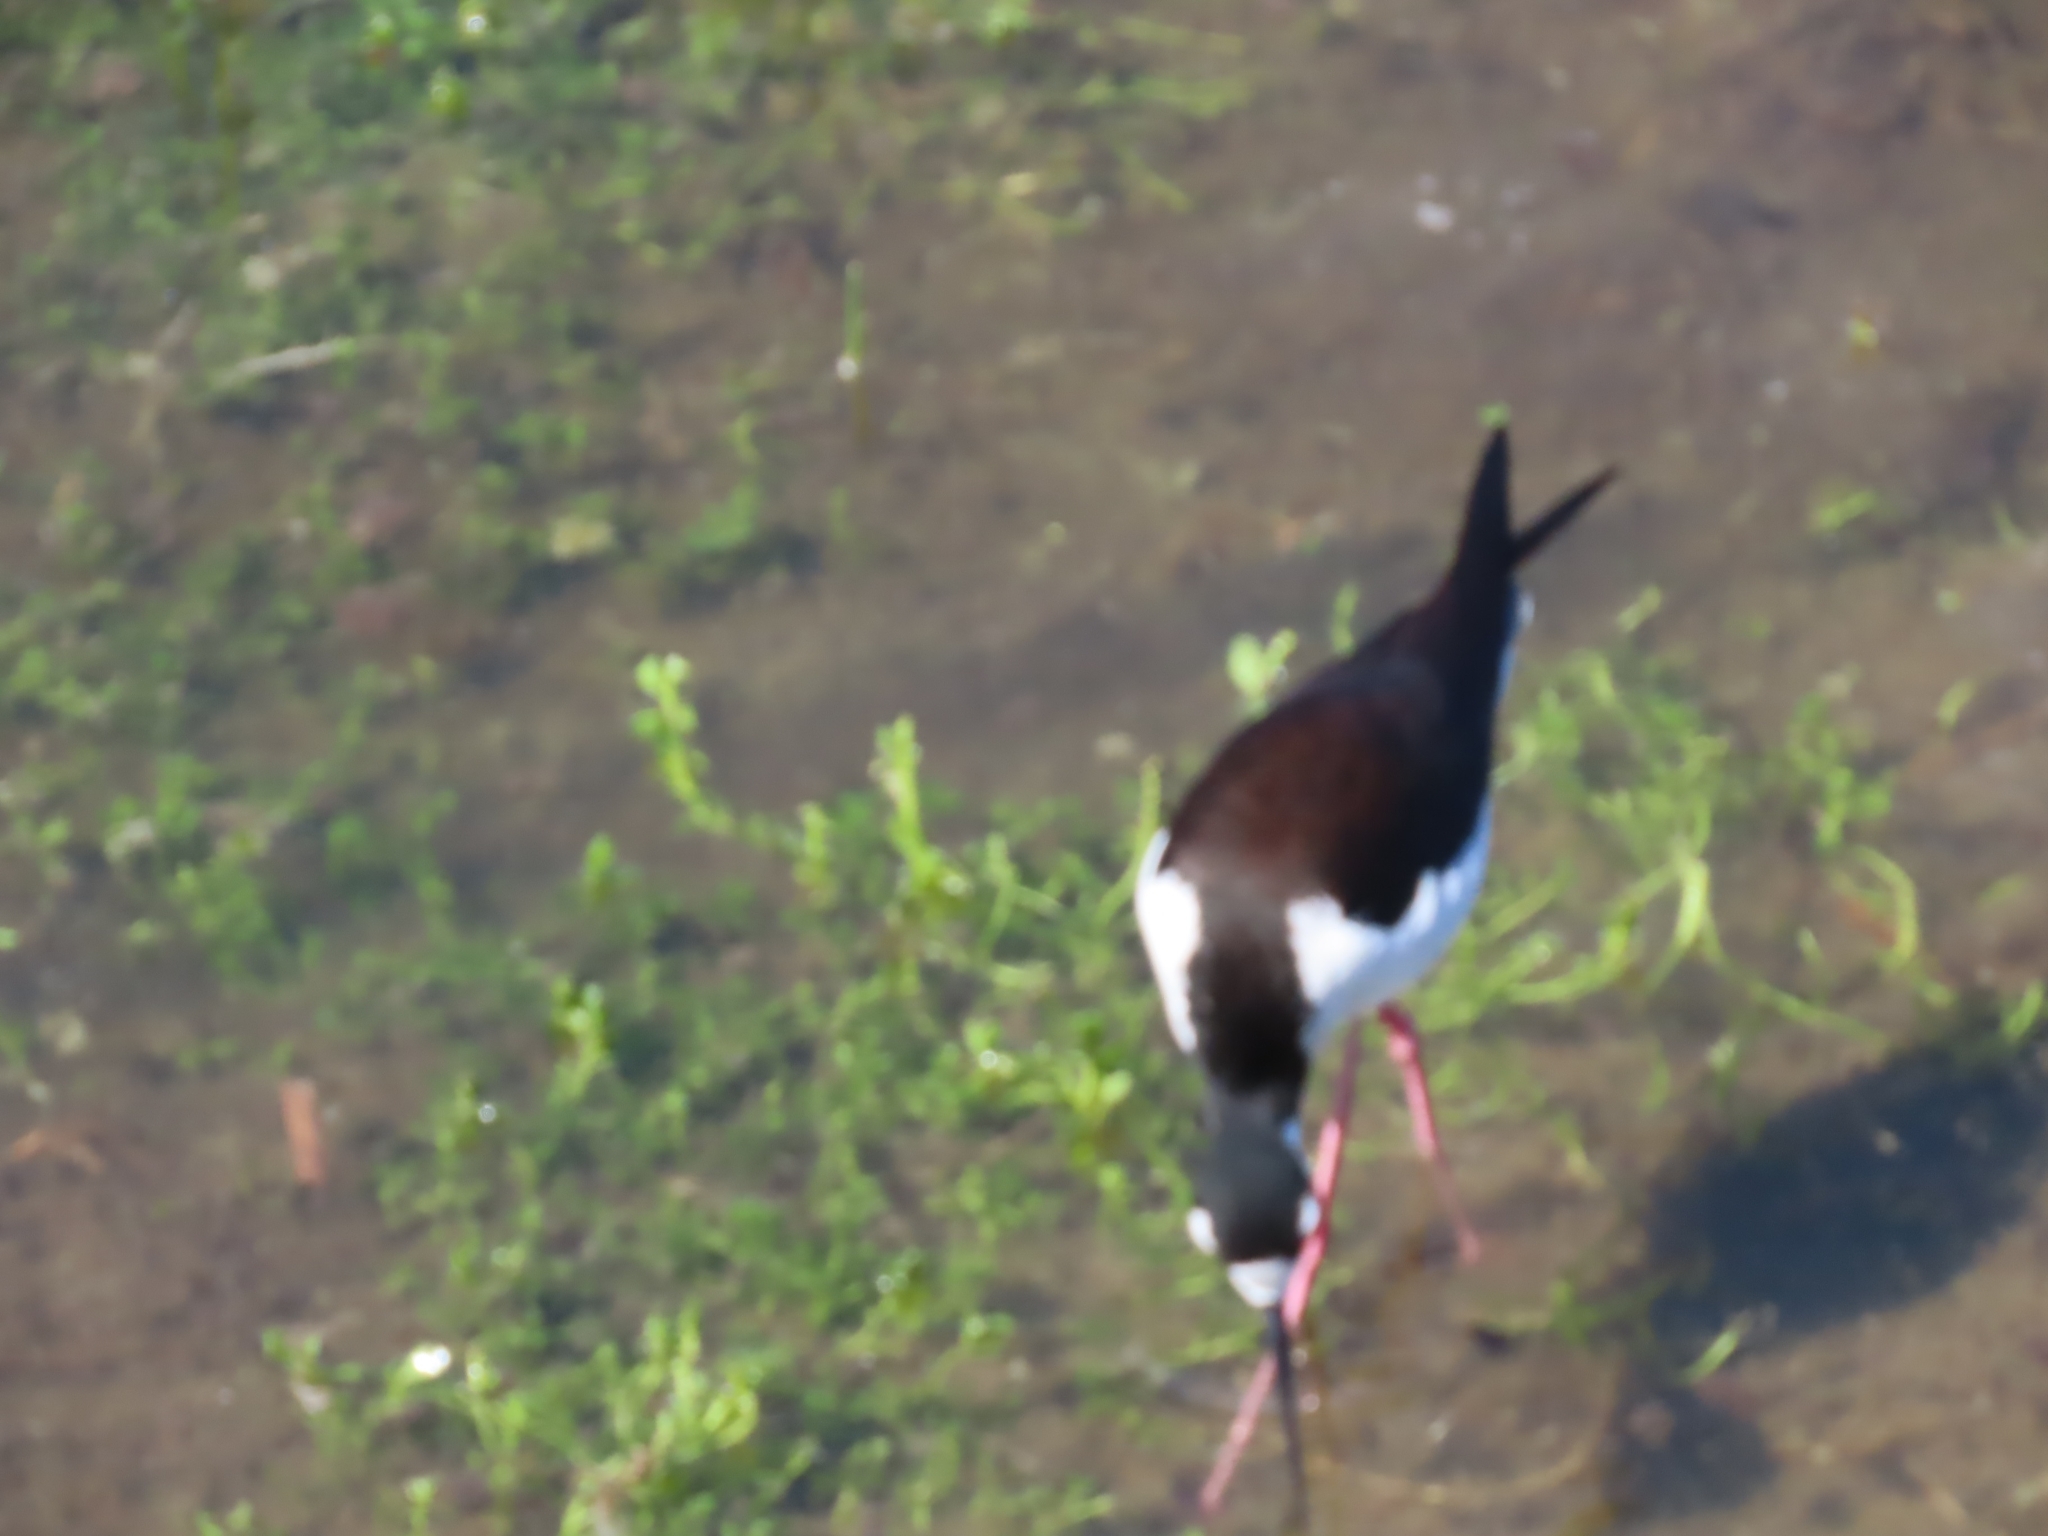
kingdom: Animalia
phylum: Chordata
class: Aves
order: Charadriiformes
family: Recurvirostridae
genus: Himantopus
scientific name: Himantopus mexicanus
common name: Black-necked stilt
